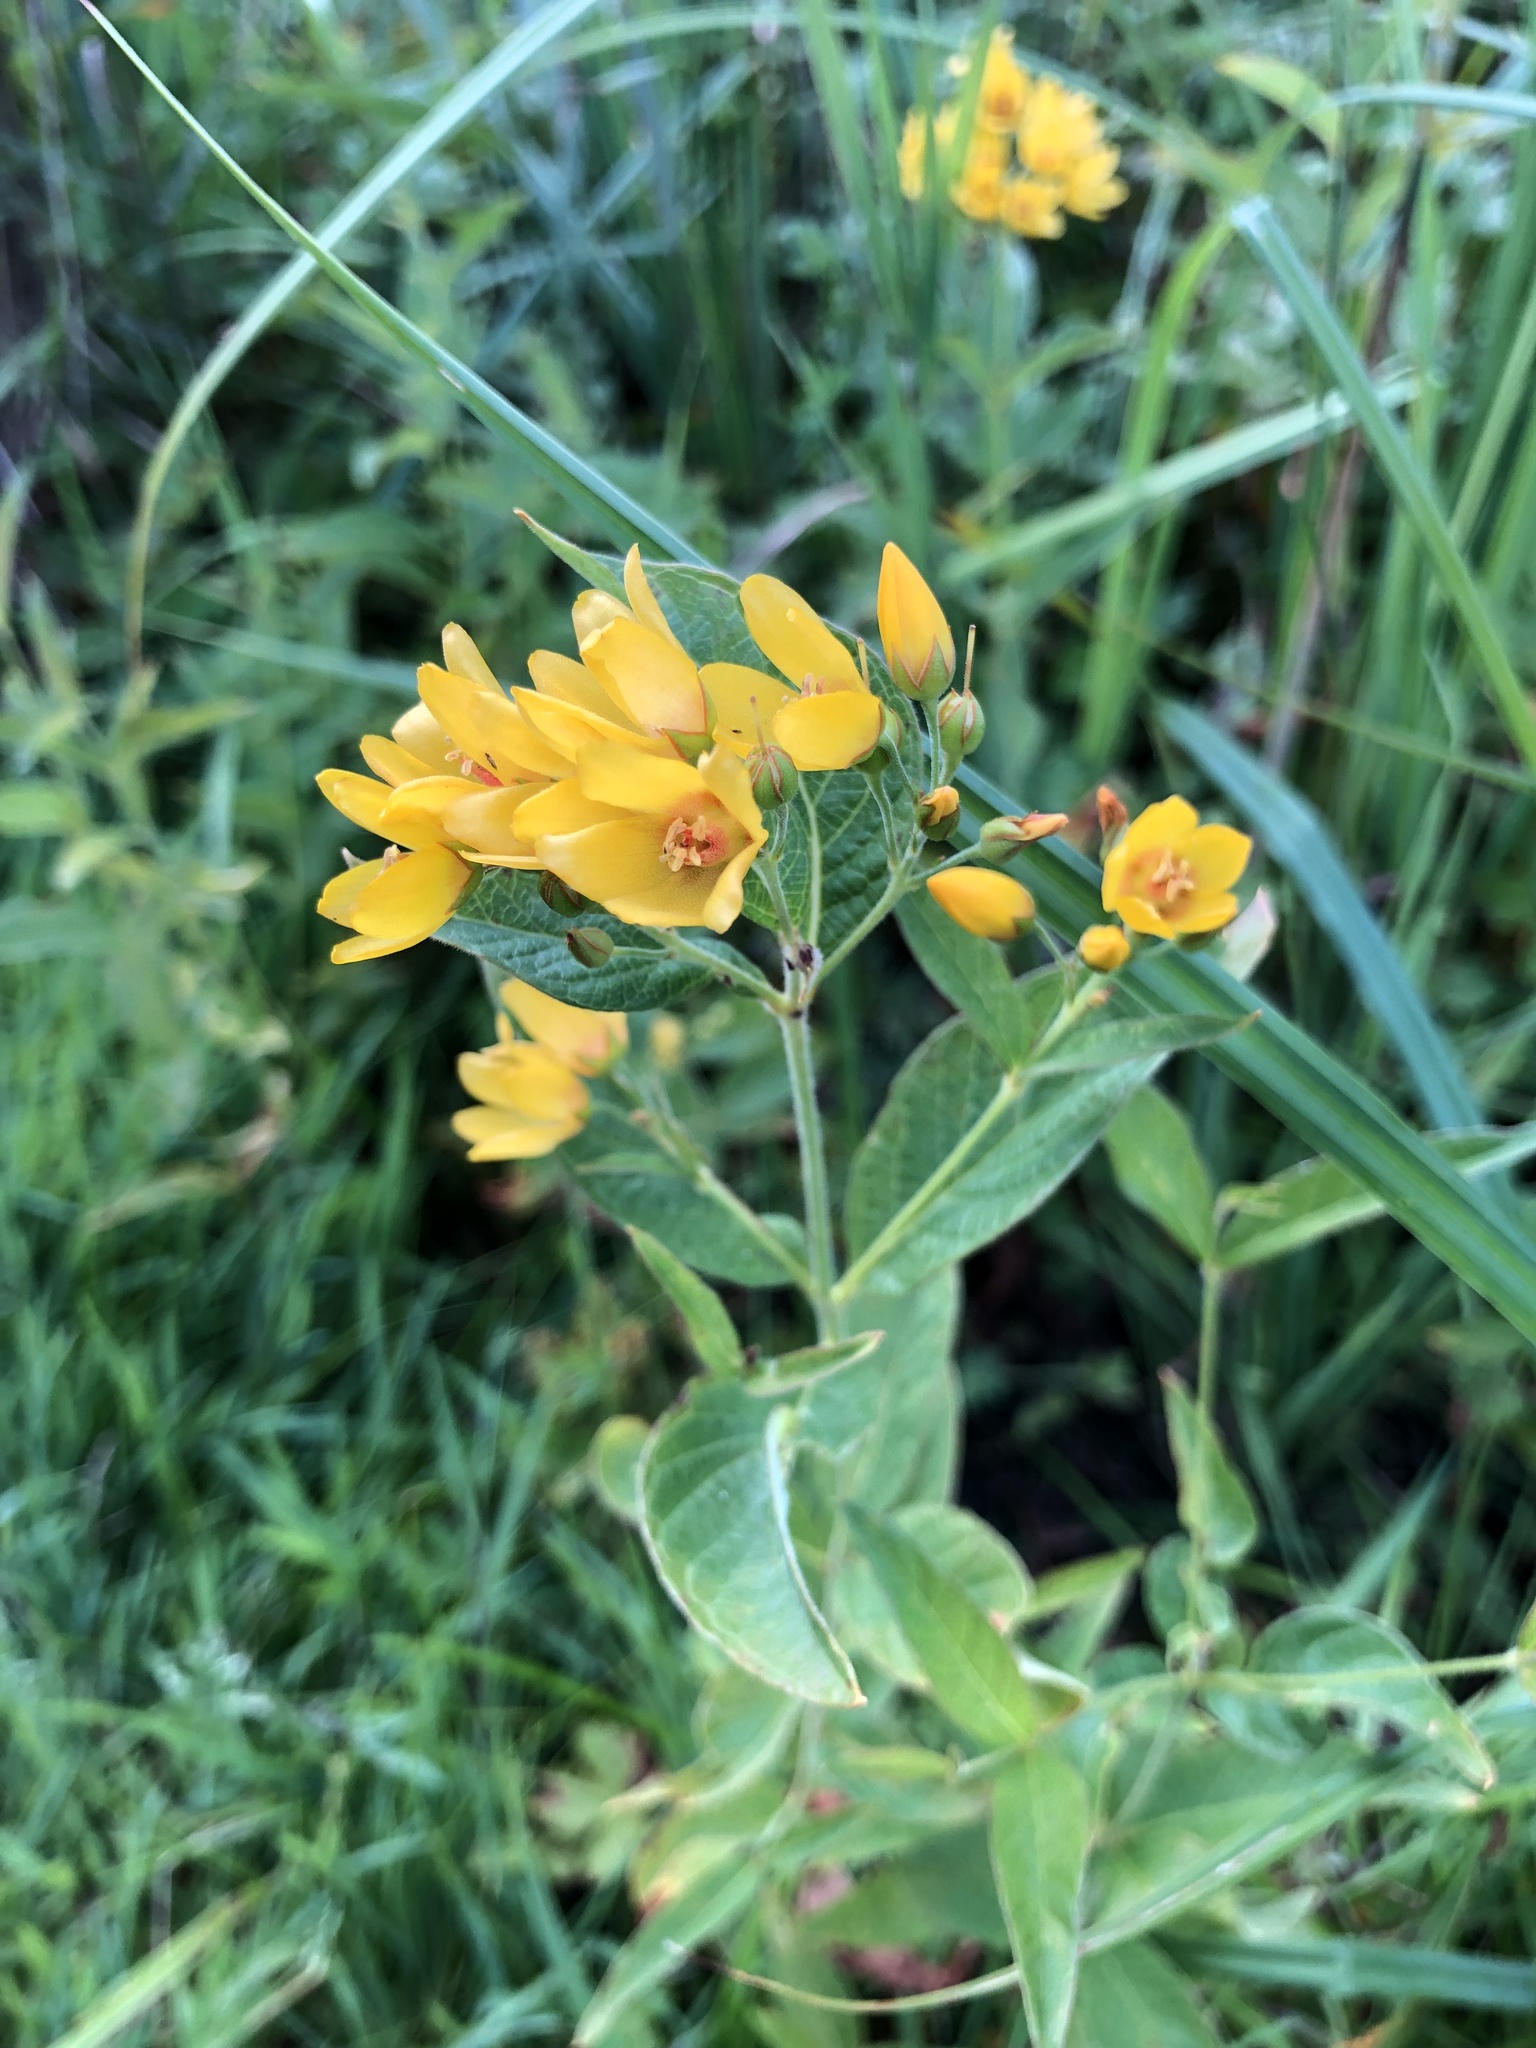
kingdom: Plantae
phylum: Tracheophyta
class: Magnoliopsida
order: Ericales
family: Primulaceae
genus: Lysimachia
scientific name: Lysimachia vulgaris
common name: Yellow loosestrife
